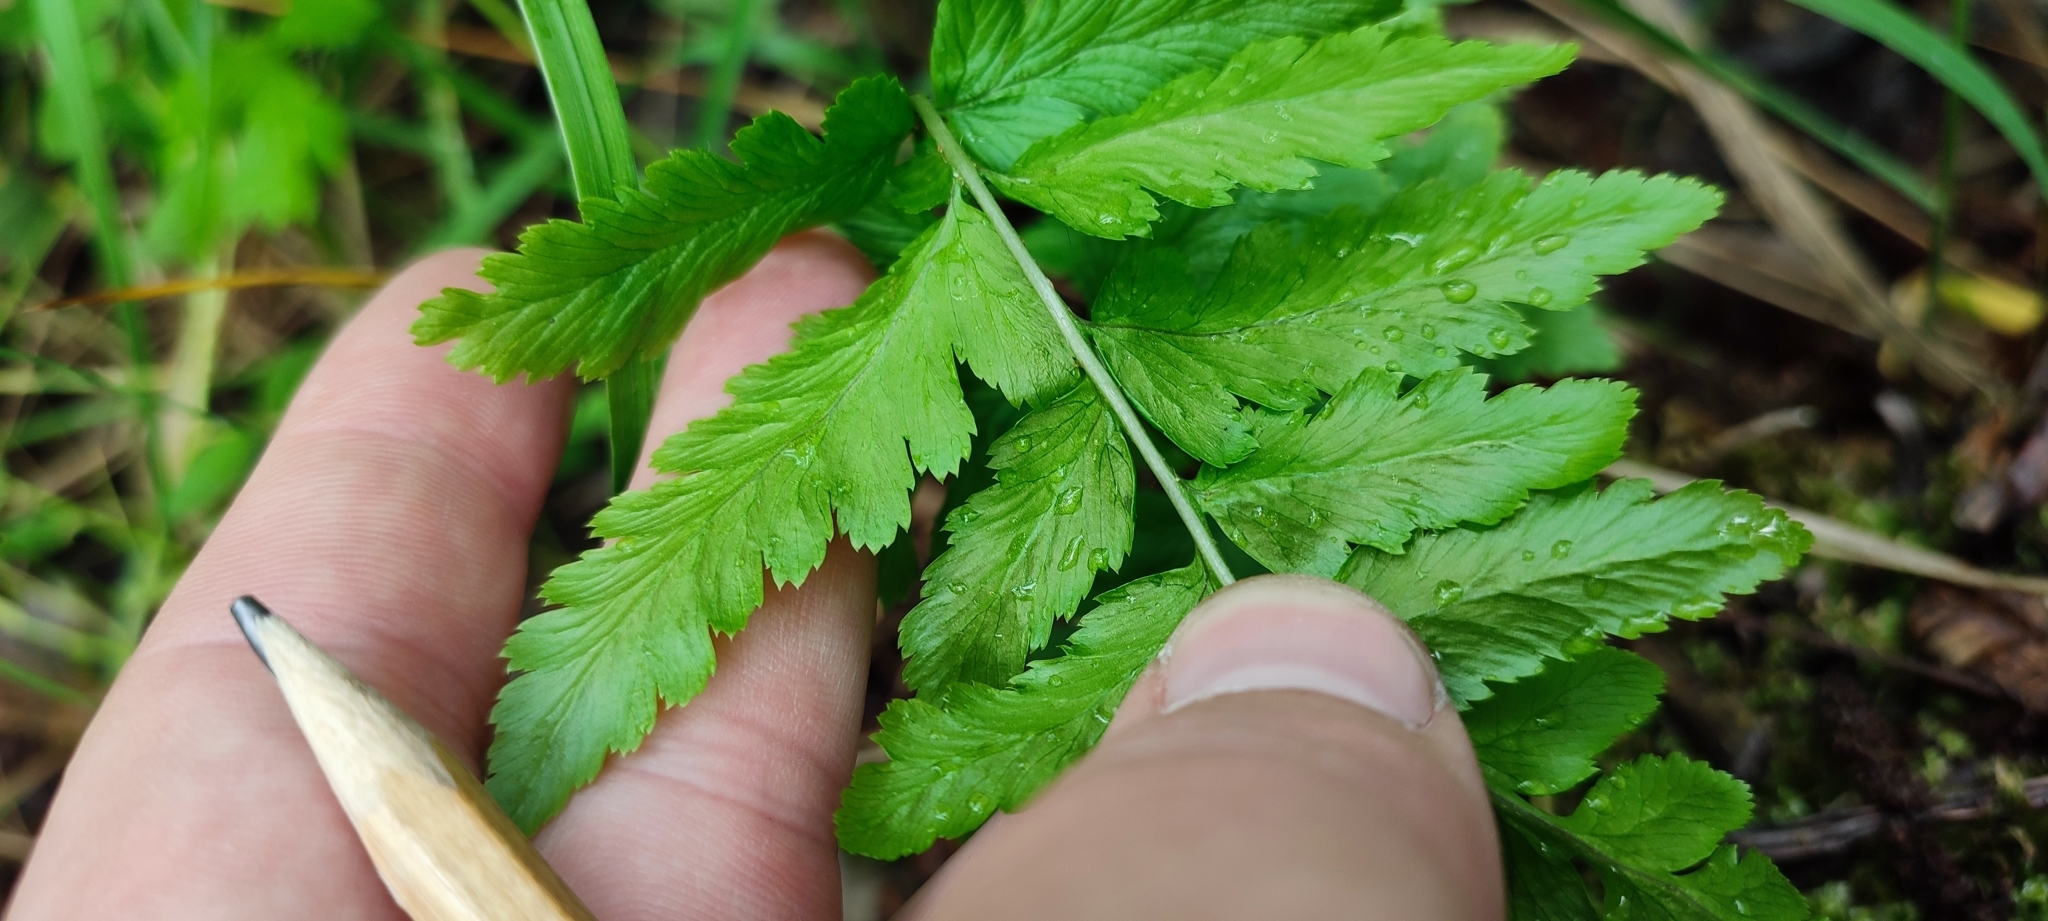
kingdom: Plantae
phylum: Tracheophyta
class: Polypodiopsida
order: Polypodiales
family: Dryopteridaceae
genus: Dryopteris
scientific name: Dryopteris cristata
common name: Crested wood fern
